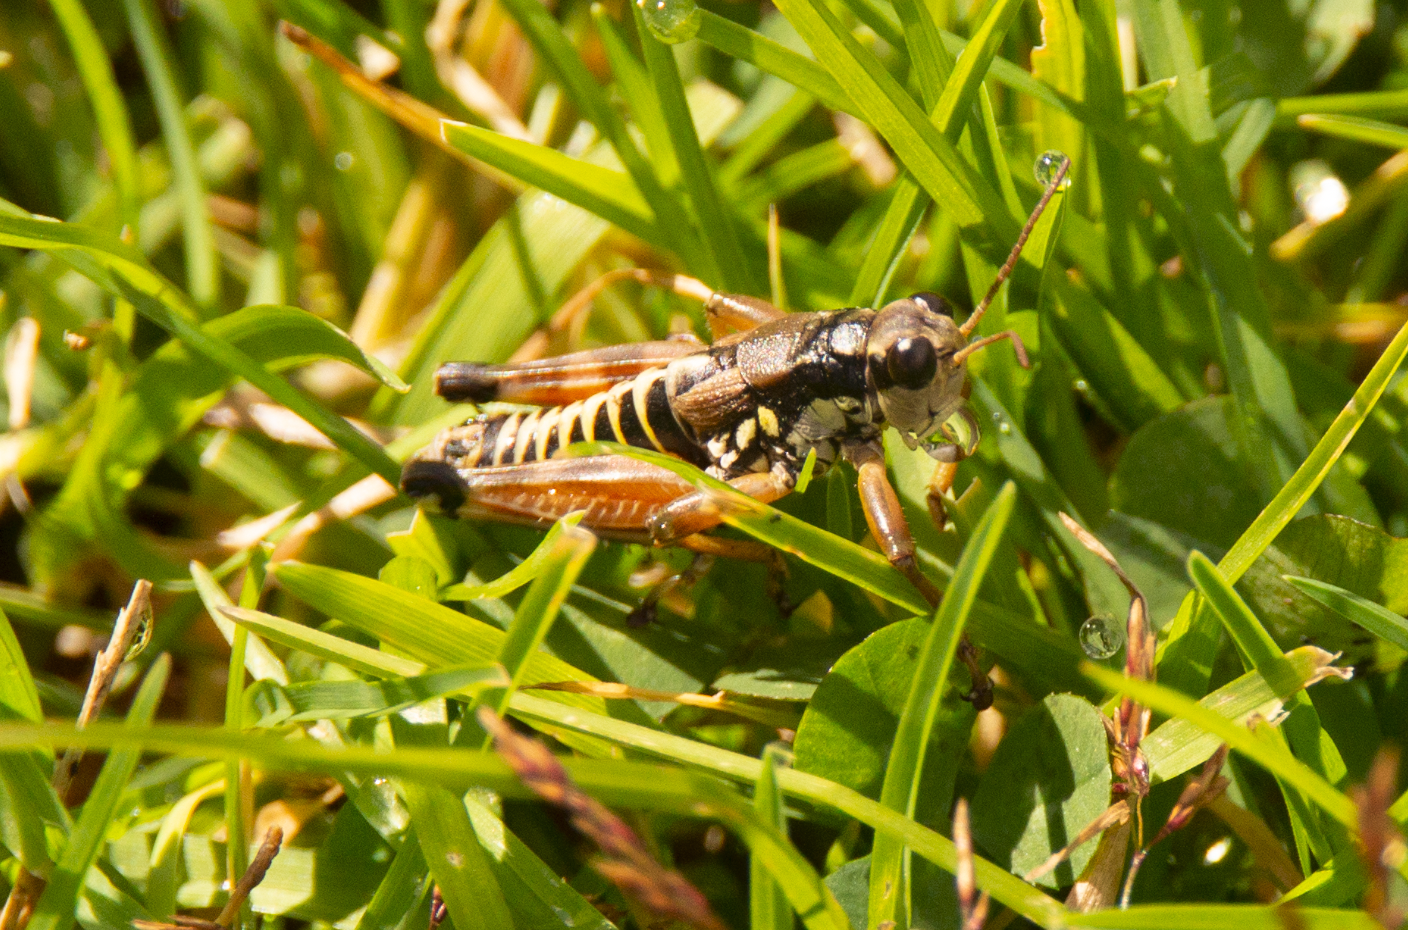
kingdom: Animalia
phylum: Arthropoda
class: Insecta
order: Orthoptera
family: Acrididae
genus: Podisma
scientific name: Podisma pedestris
